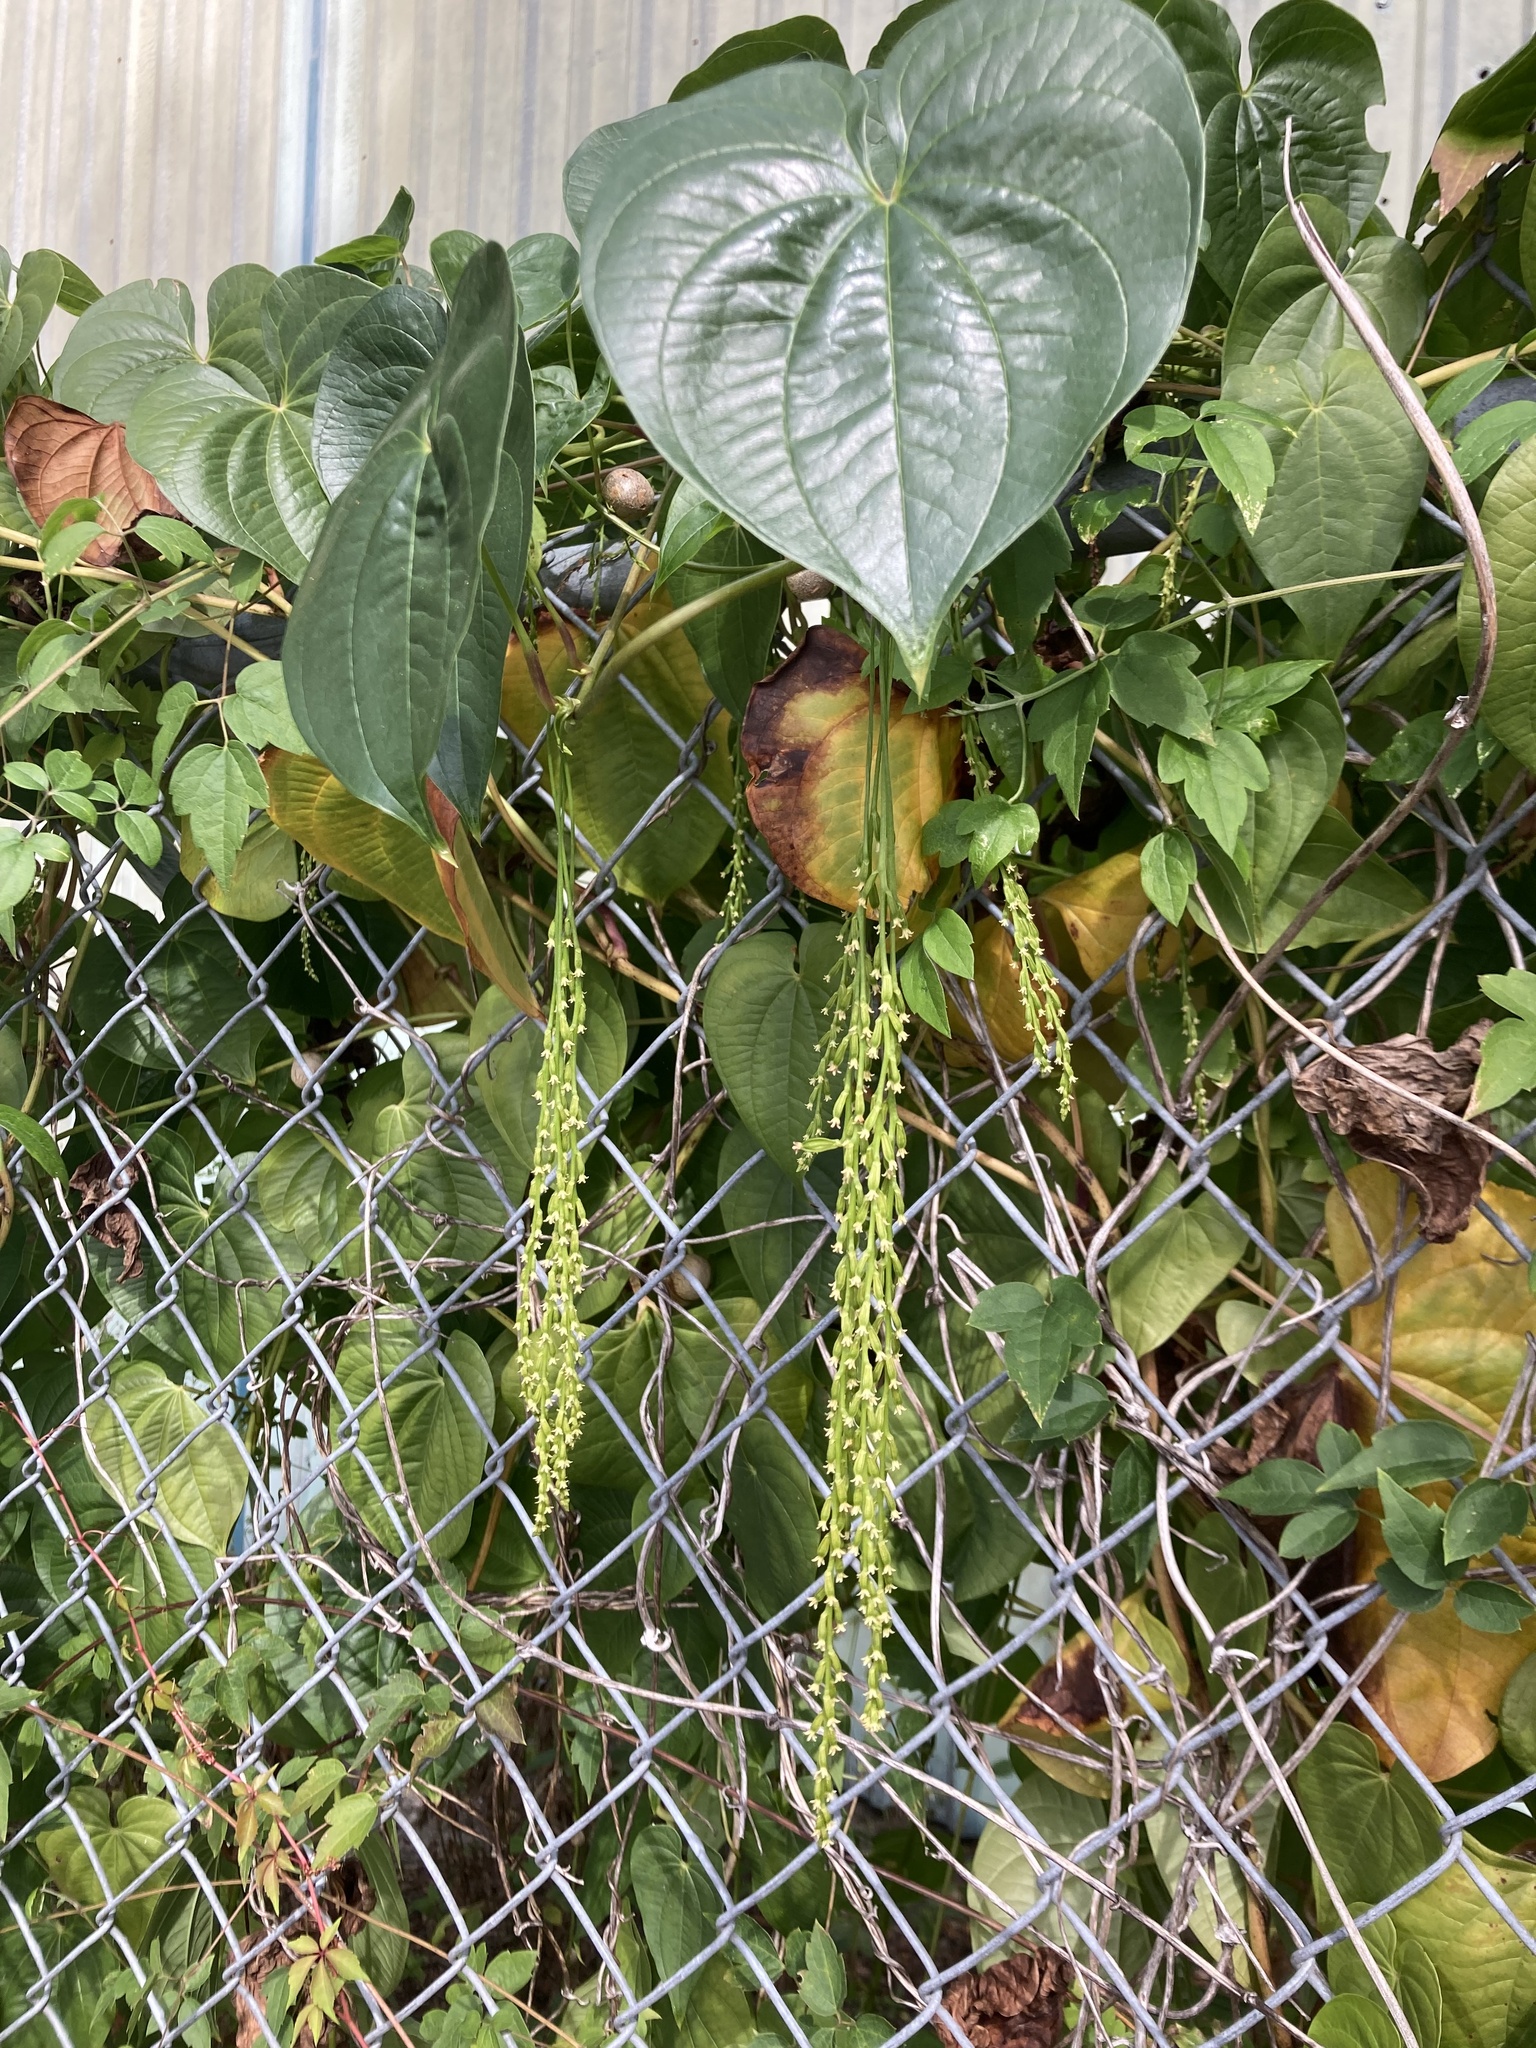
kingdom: Plantae
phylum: Tracheophyta
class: Liliopsida
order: Dioscoreales
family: Dioscoreaceae
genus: Dioscorea
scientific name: Dioscorea bulbifera
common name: Air yam
